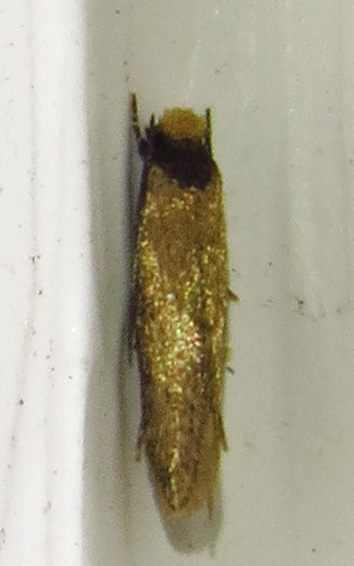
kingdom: Animalia
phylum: Arthropoda
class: Insecta
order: Lepidoptera
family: Tineidae
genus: Tinea
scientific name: Tinea apicimaculella
